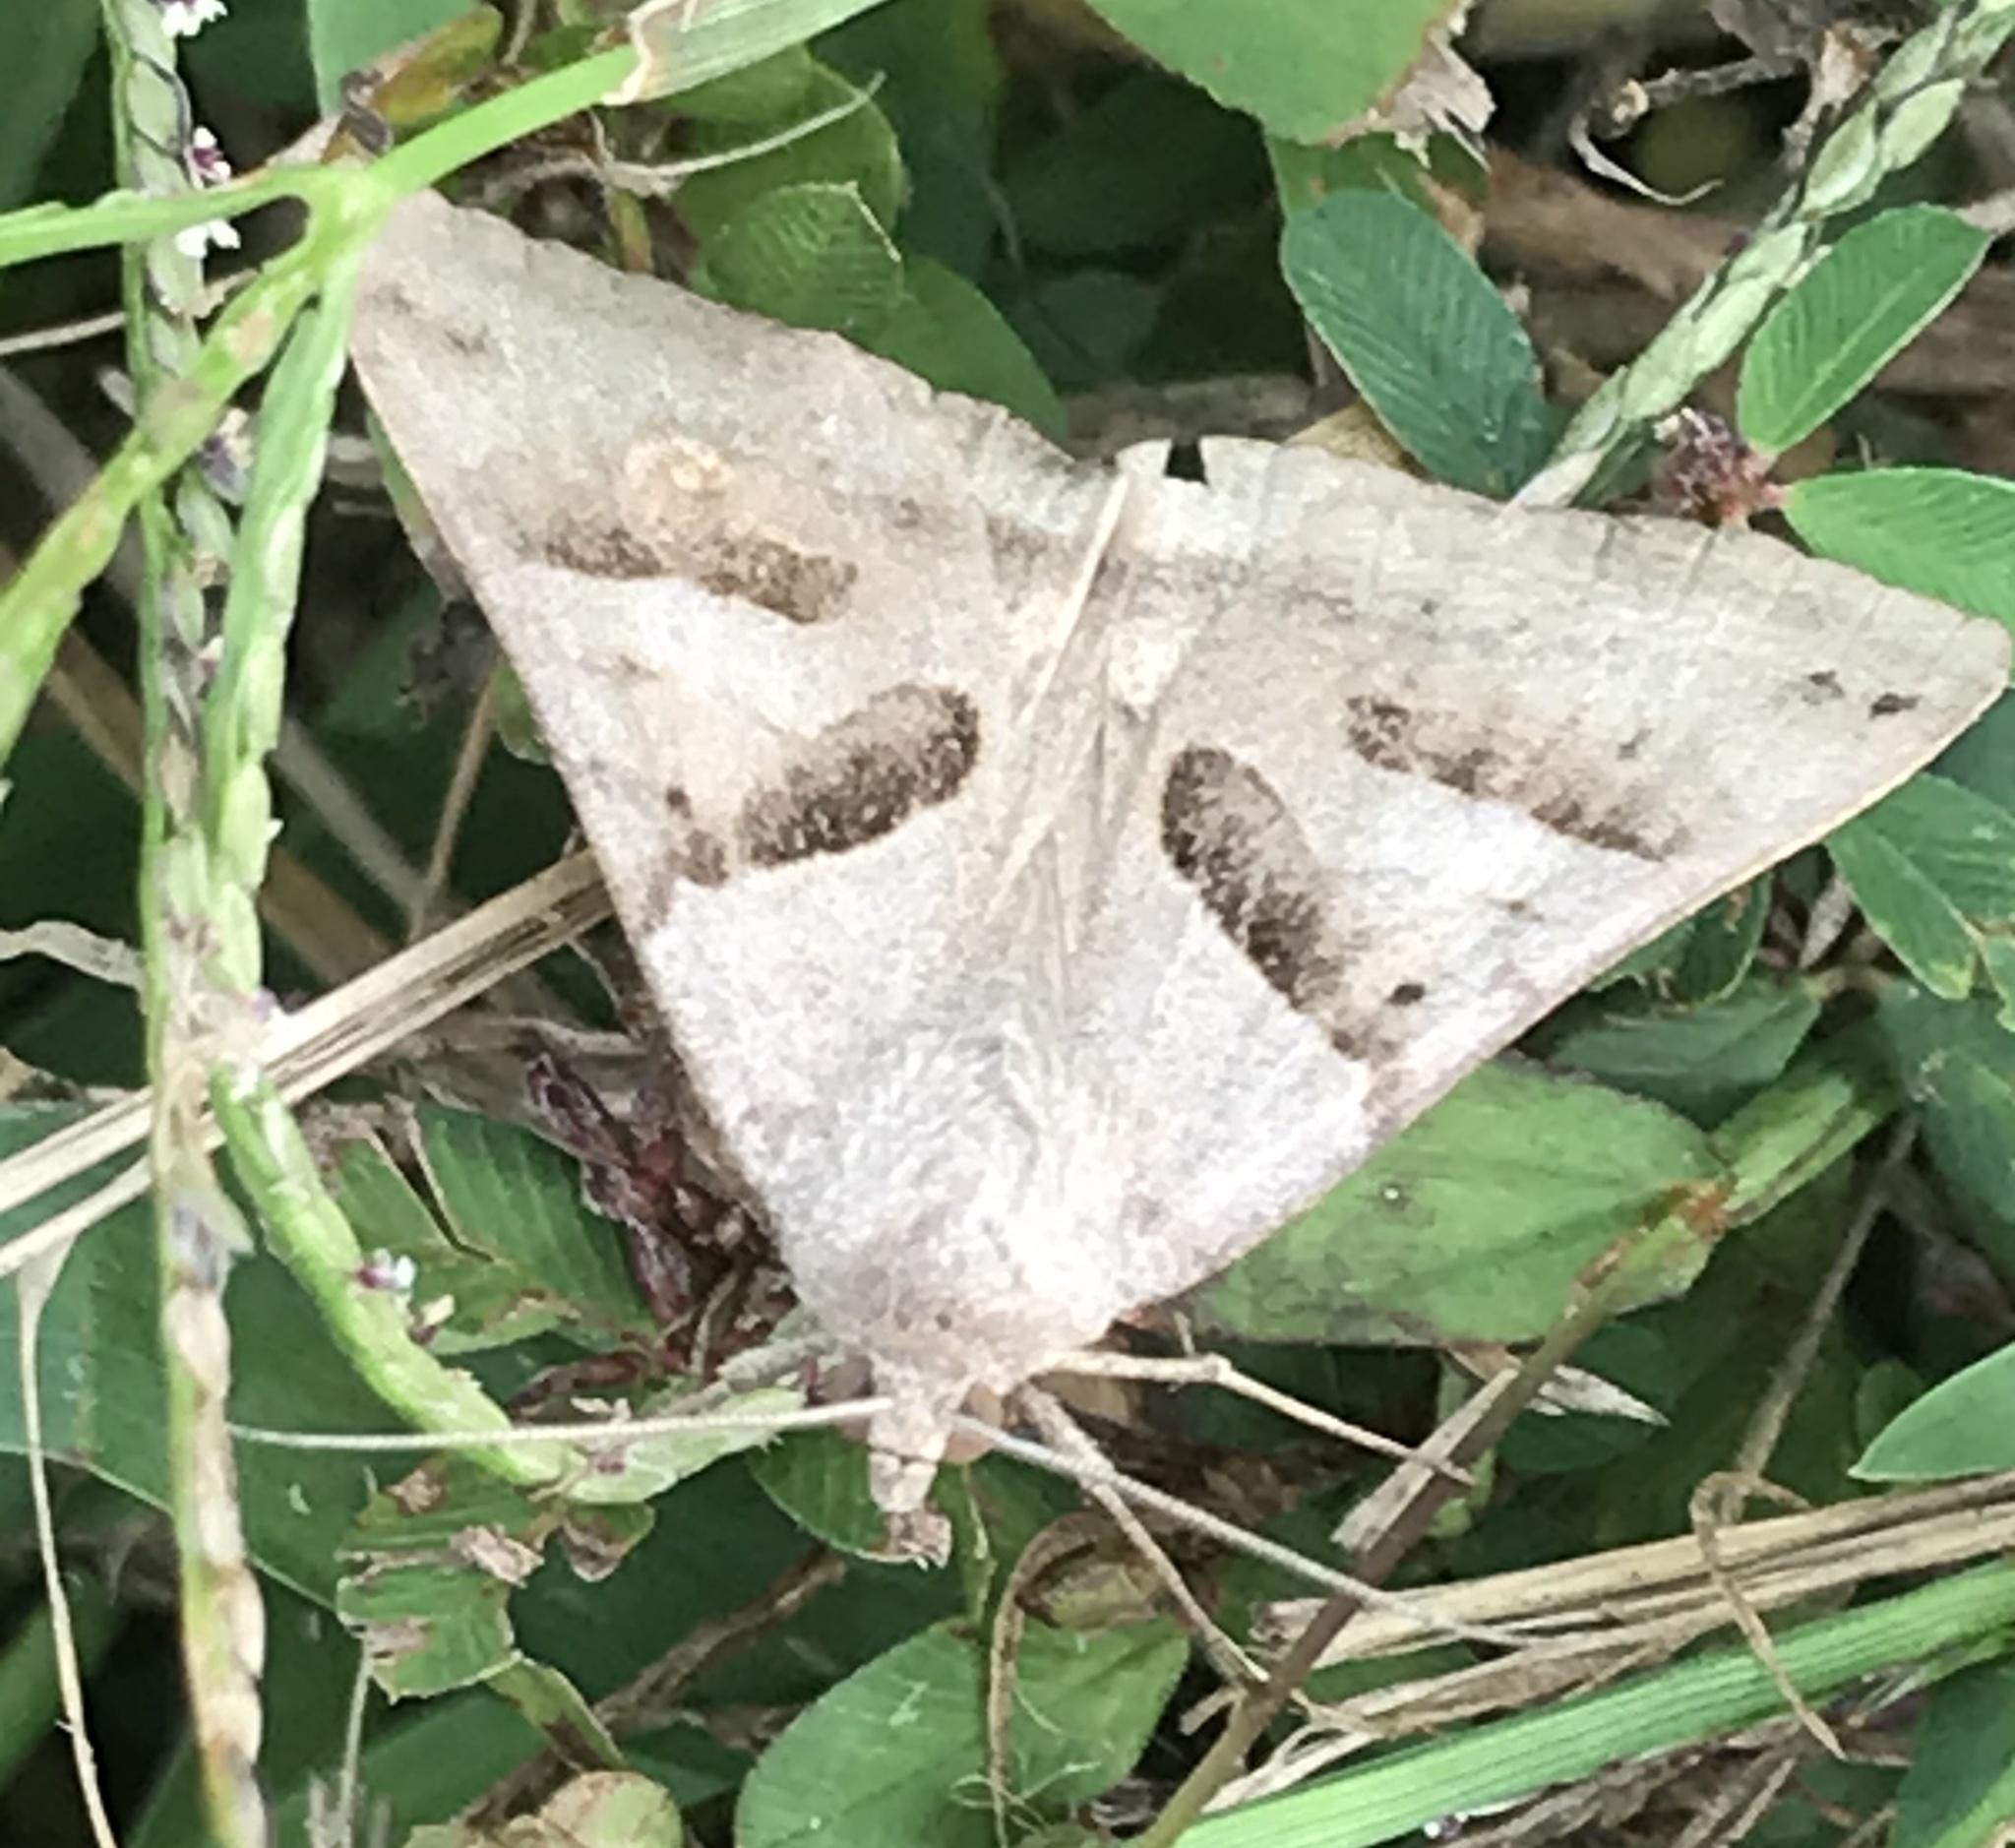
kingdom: Animalia
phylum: Arthropoda
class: Insecta
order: Lepidoptera
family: Erebidae
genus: Caenurgina
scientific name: Caenurgina erechtea
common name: Forage looper moth
